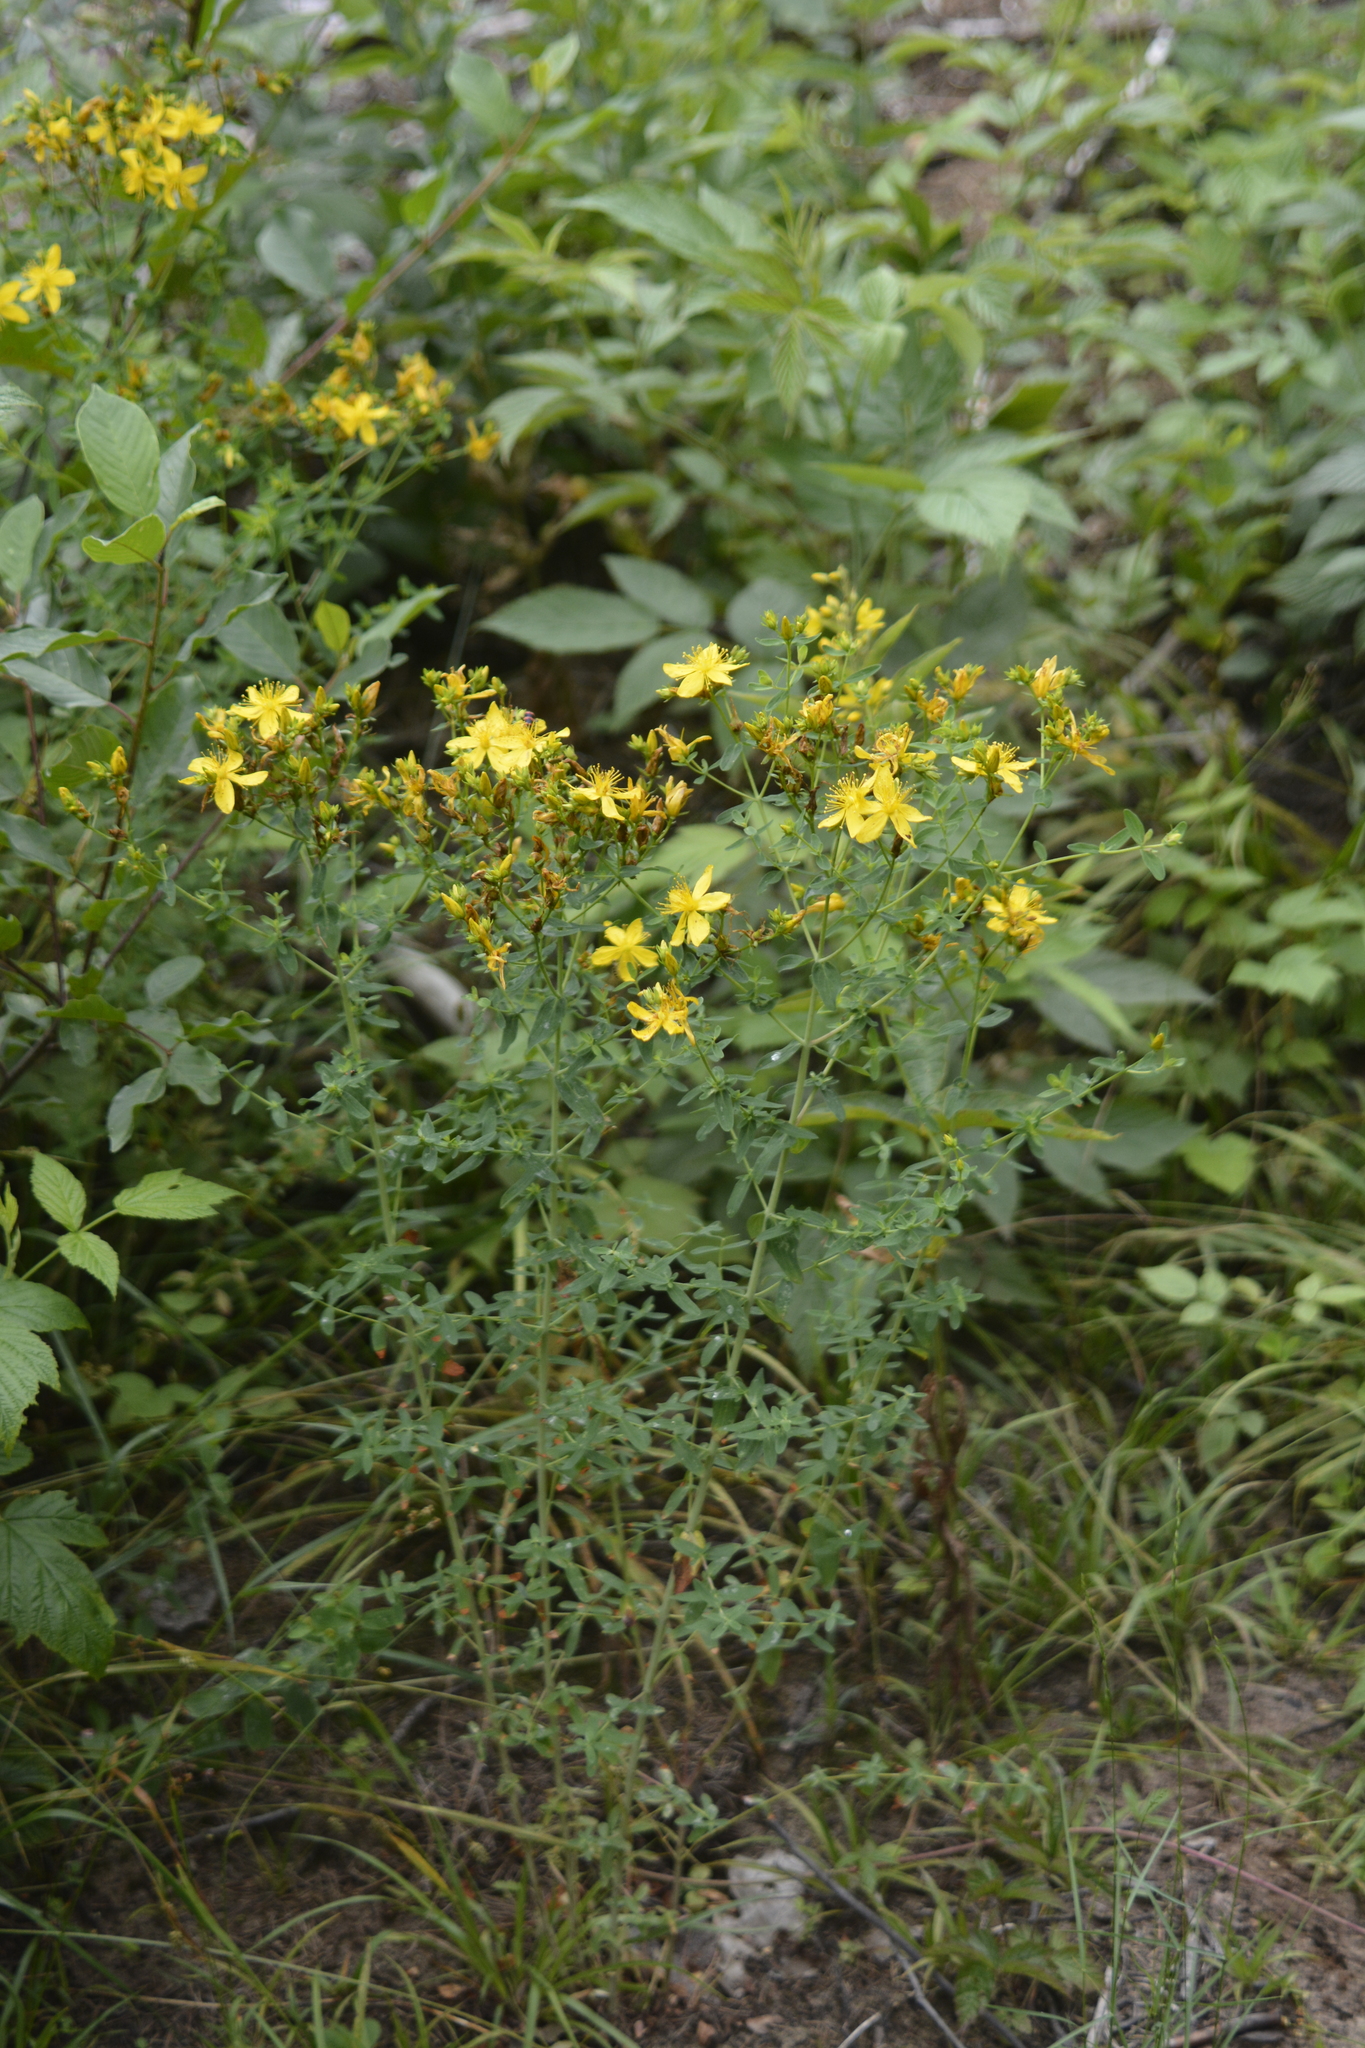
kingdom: Plantae
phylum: Tracheophyta
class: Magnoliopsida
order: Malpighiales
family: Hypericaceae
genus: Hypericum
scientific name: Hypericum perforatum
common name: Common st. johnswort
